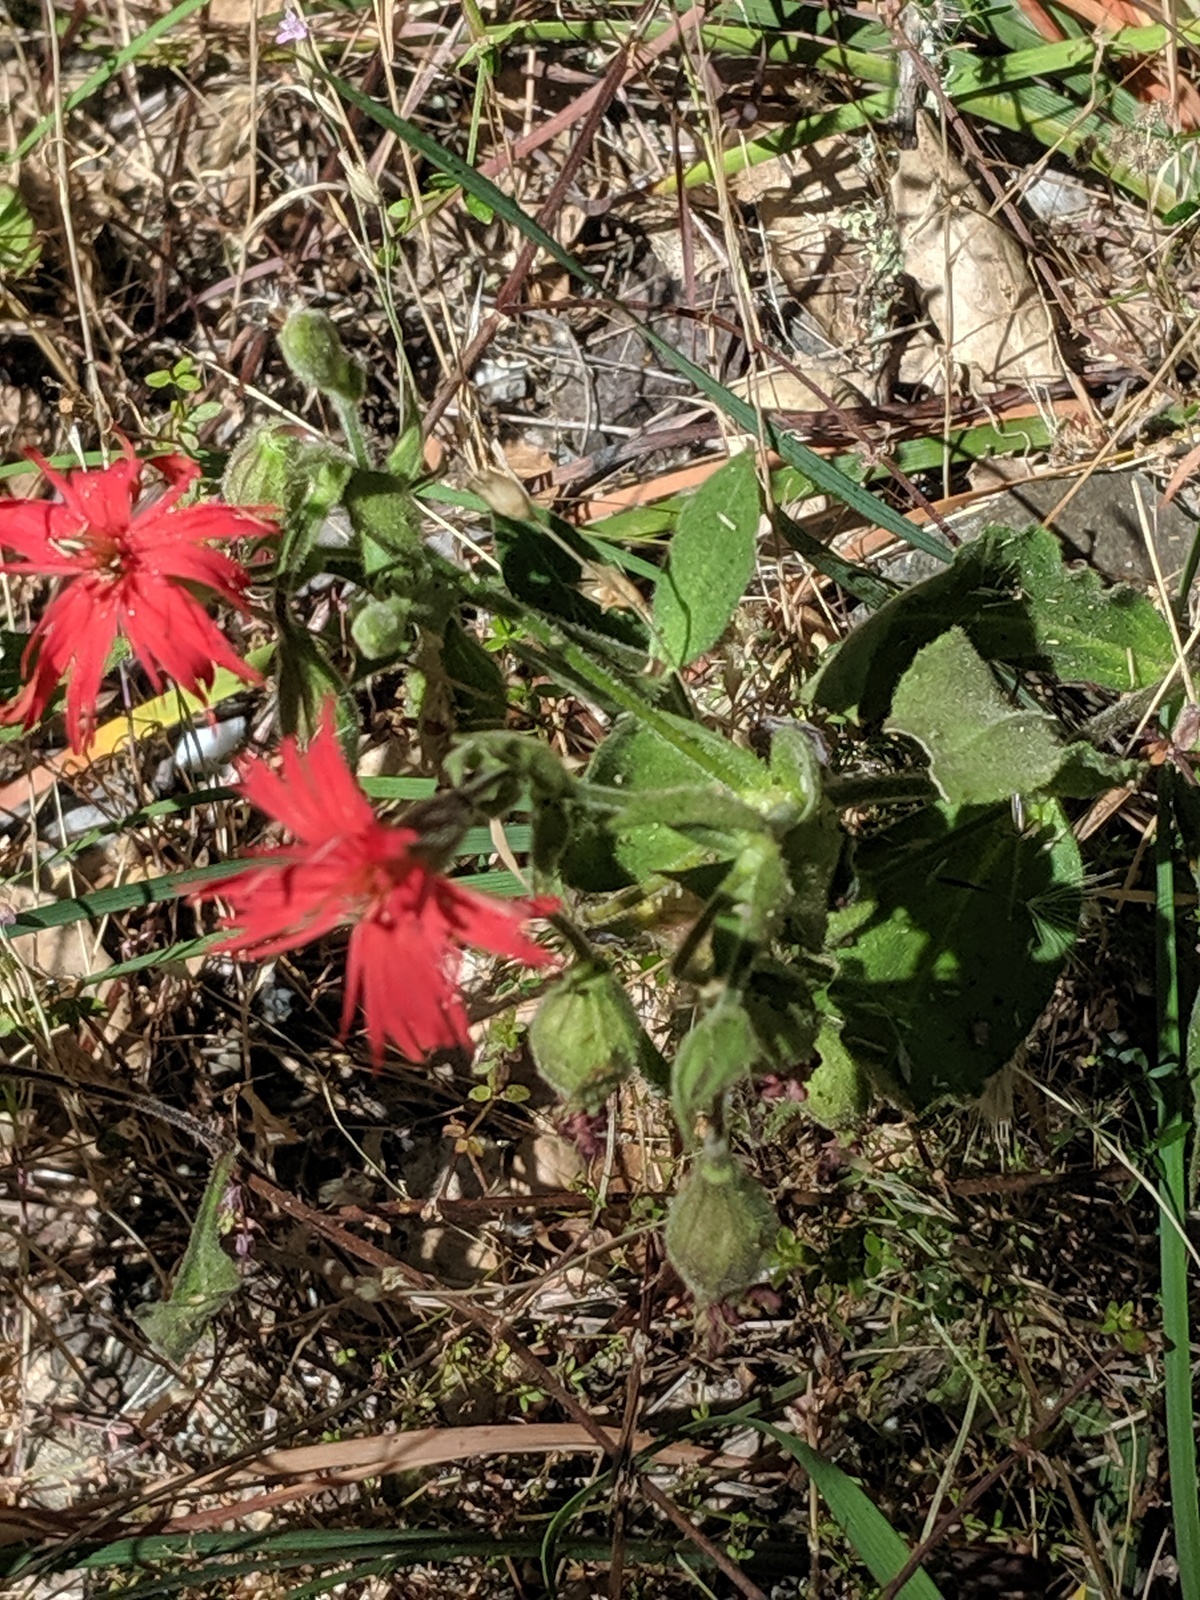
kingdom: Plantae
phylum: Tracheophyta
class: Magnoliopsida
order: Caryophyllales
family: Caryophyllaceae
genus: Silene
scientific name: Silene laciniata
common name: Indian-pink
